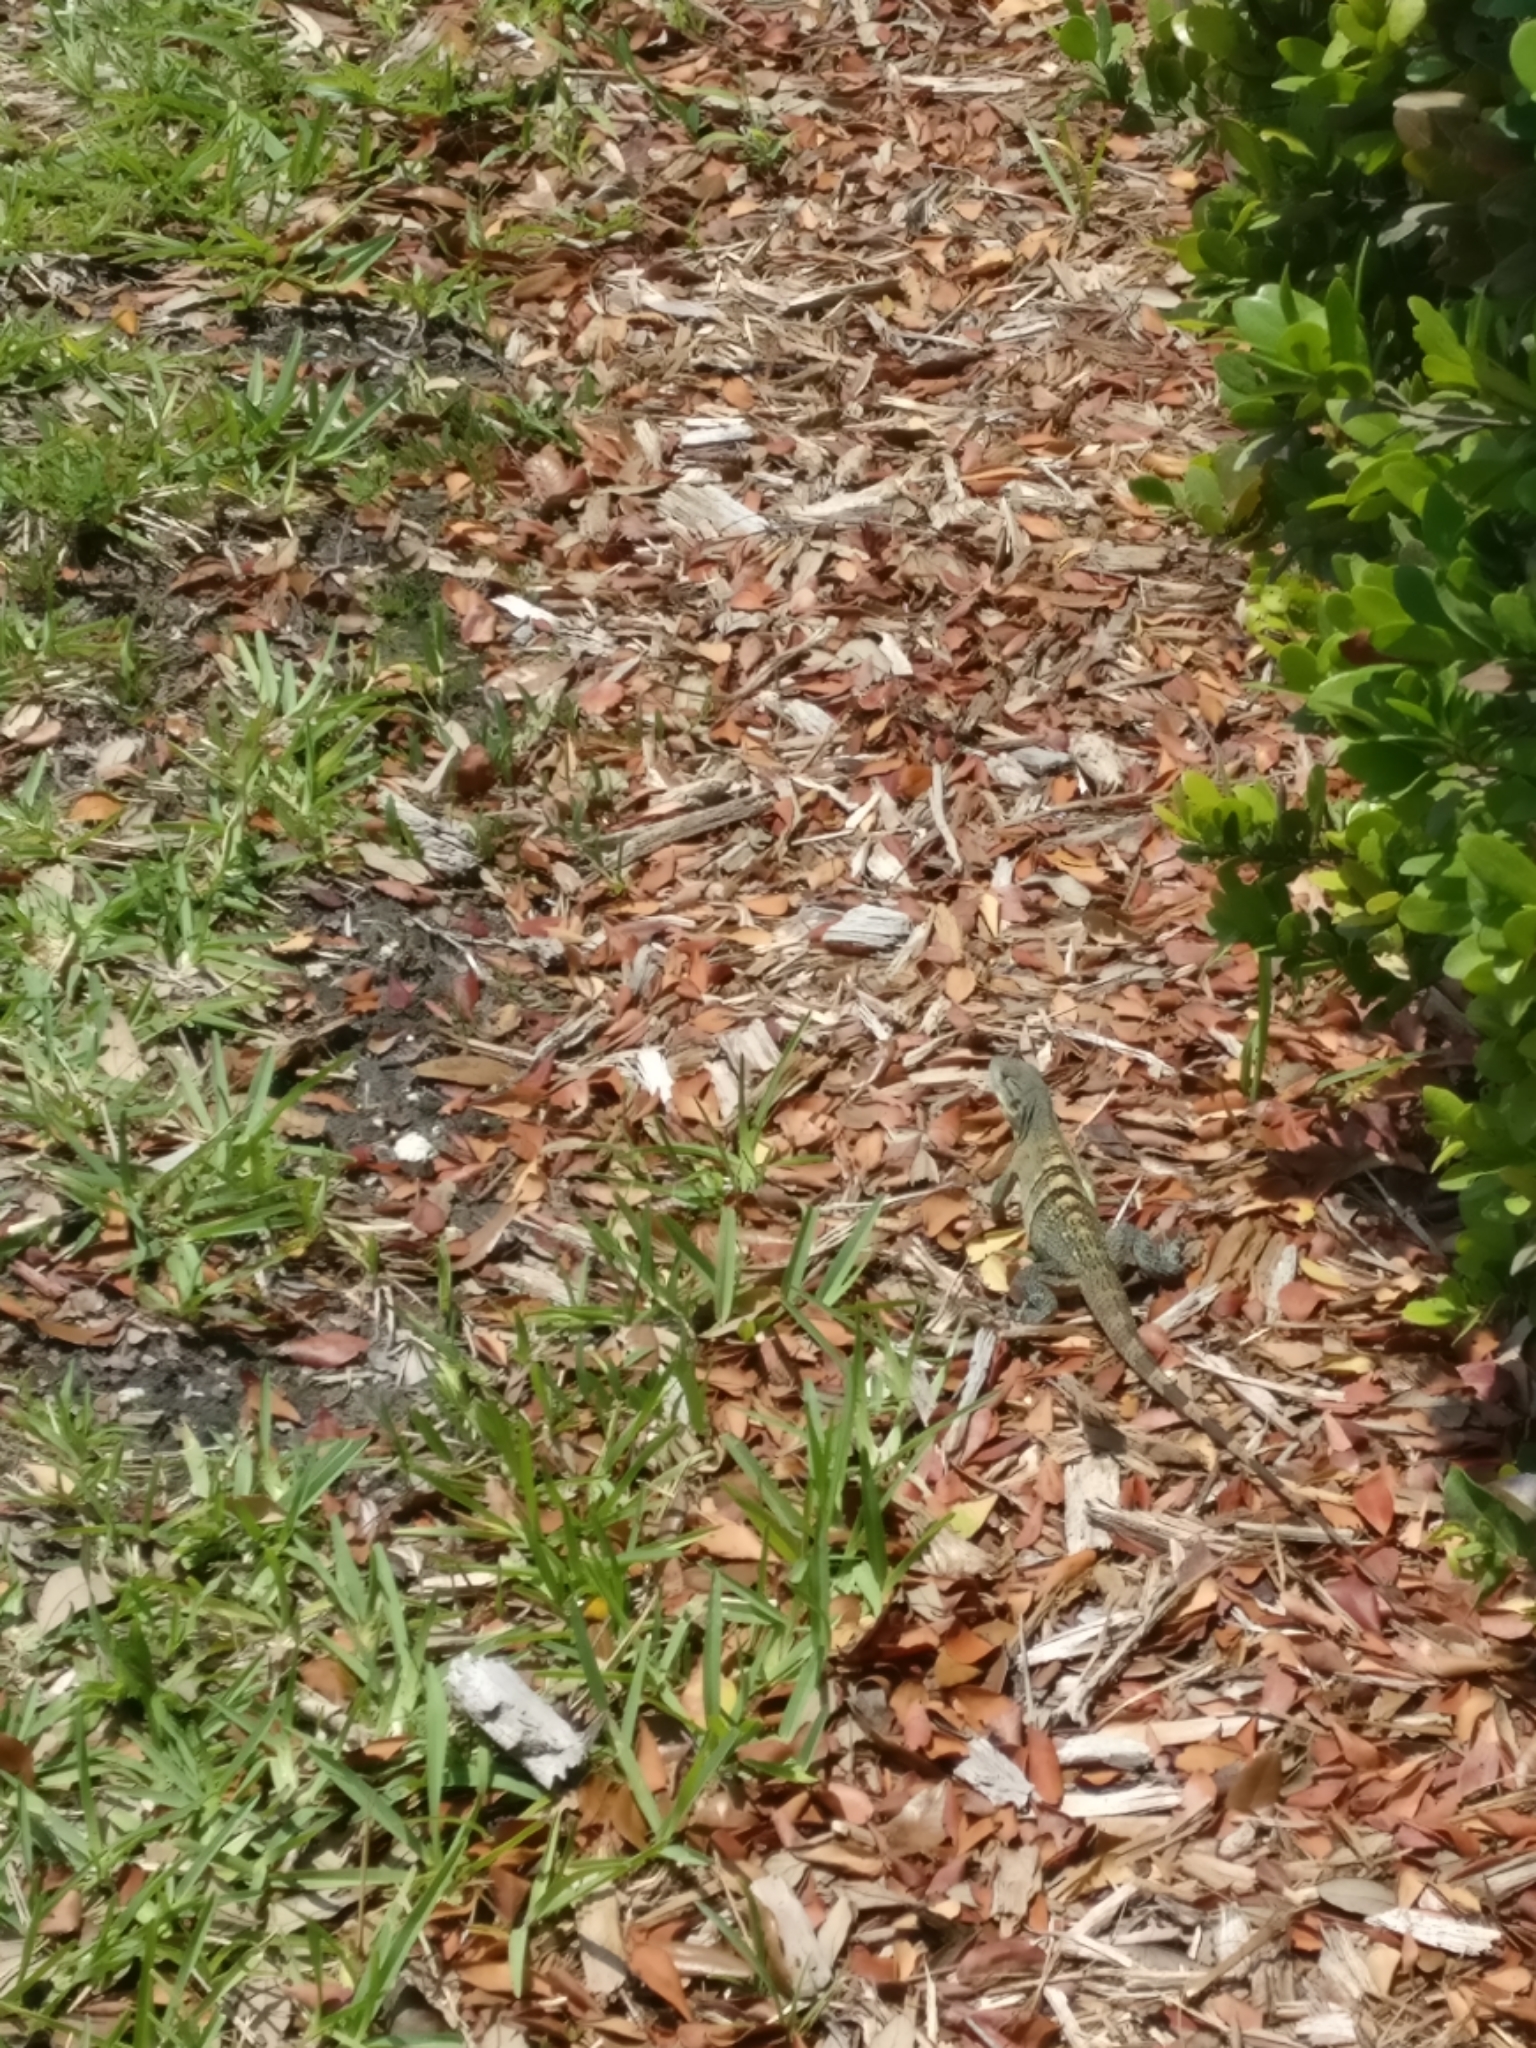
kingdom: Animalia
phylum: Chordata
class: Squamata
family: Iguanidae
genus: Ctenosaura
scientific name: Ctenosaura similis
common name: Black spiny-tailed iguana
